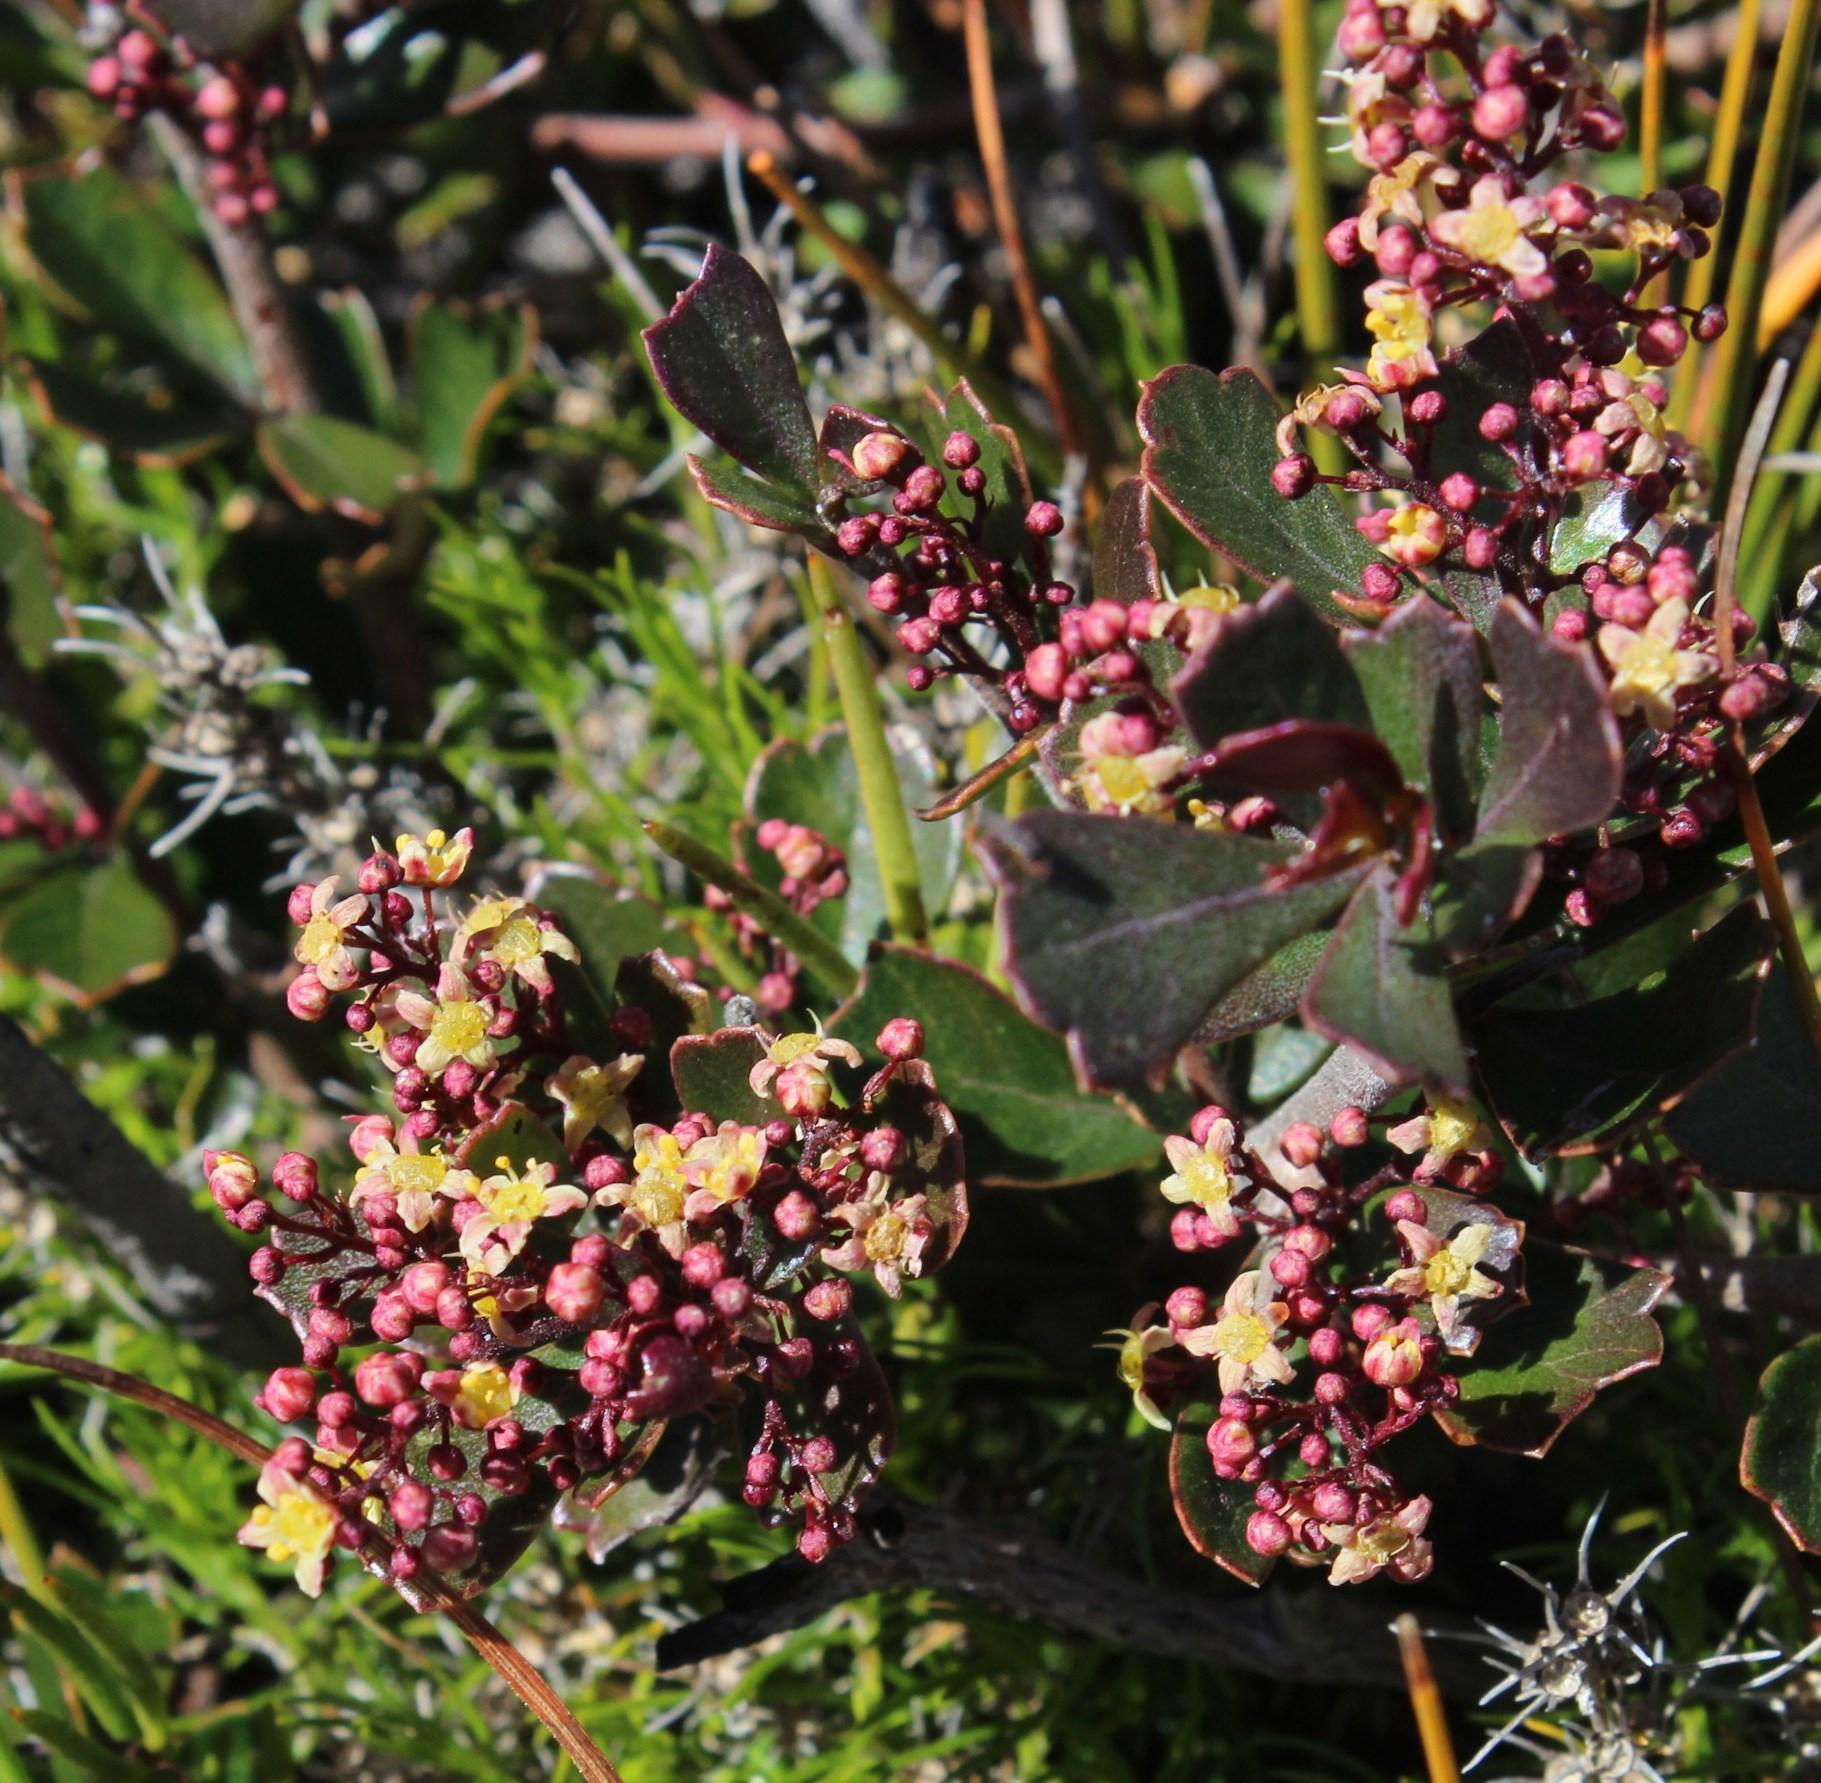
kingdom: Plantae
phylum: Tracheophyta
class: Magnoliopsida
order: Sapindales
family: Anacardiaceae
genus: Searsia
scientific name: Searsia cuneifolia
